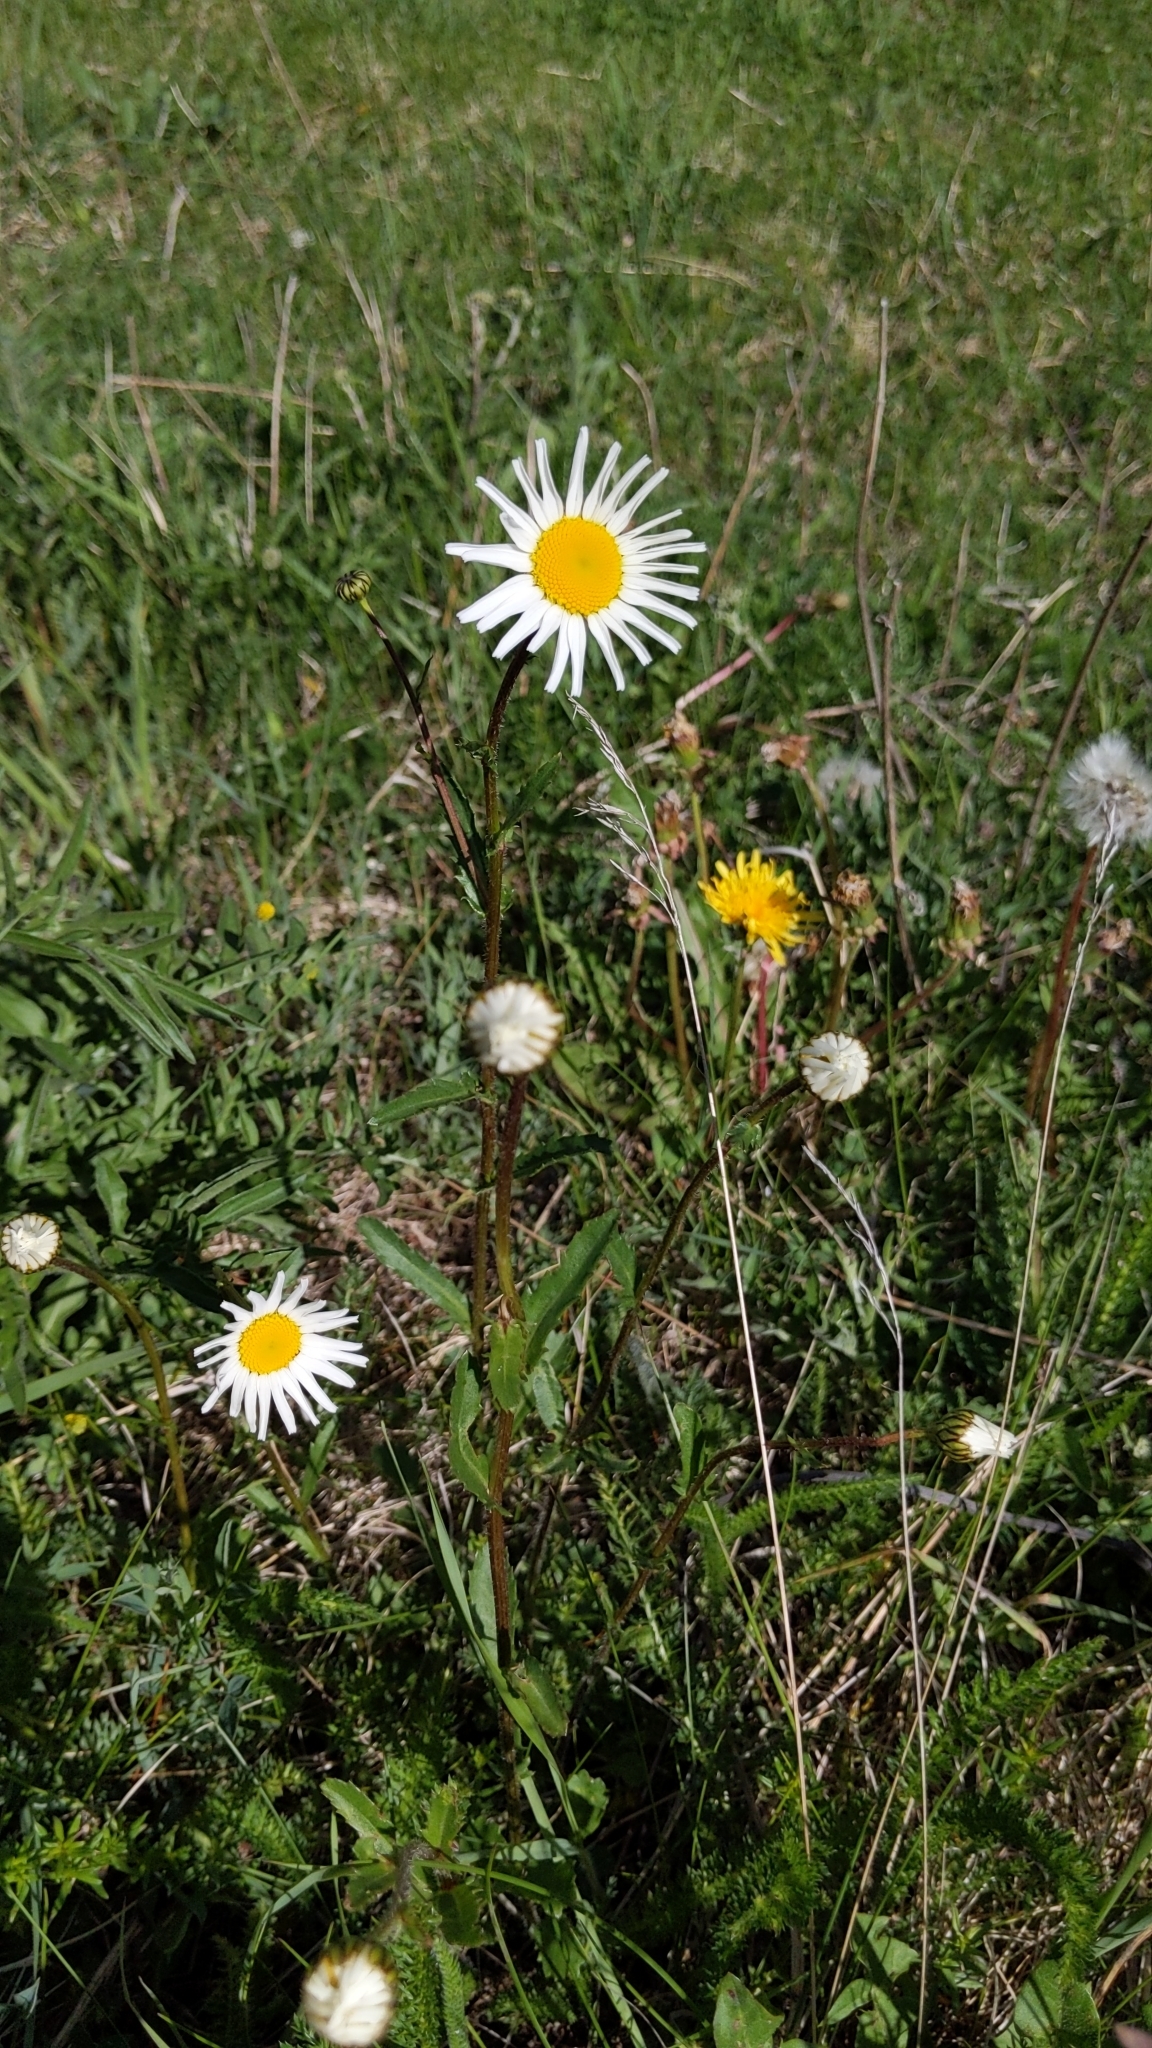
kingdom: Plantae
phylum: Tracheophyta
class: Magnoliopsida
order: Asterales
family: Asteraceae
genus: Leucanthemum
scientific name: Leucanthemum vulgare
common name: Oxeye daisy
